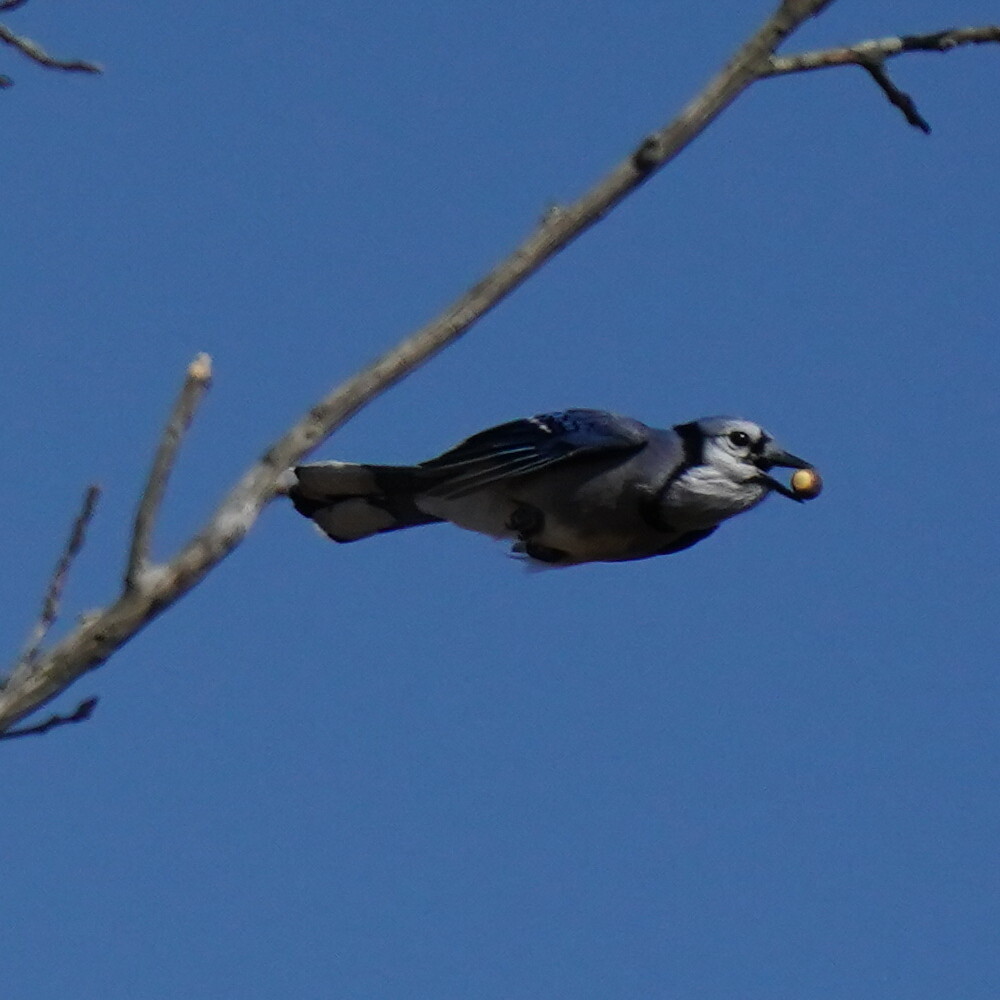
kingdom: Animalia
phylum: Chordata
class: Aves
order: Passeriformes
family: Corvidae
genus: Cyanocitta
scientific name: Cyanocitta cristata
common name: Blue jay
